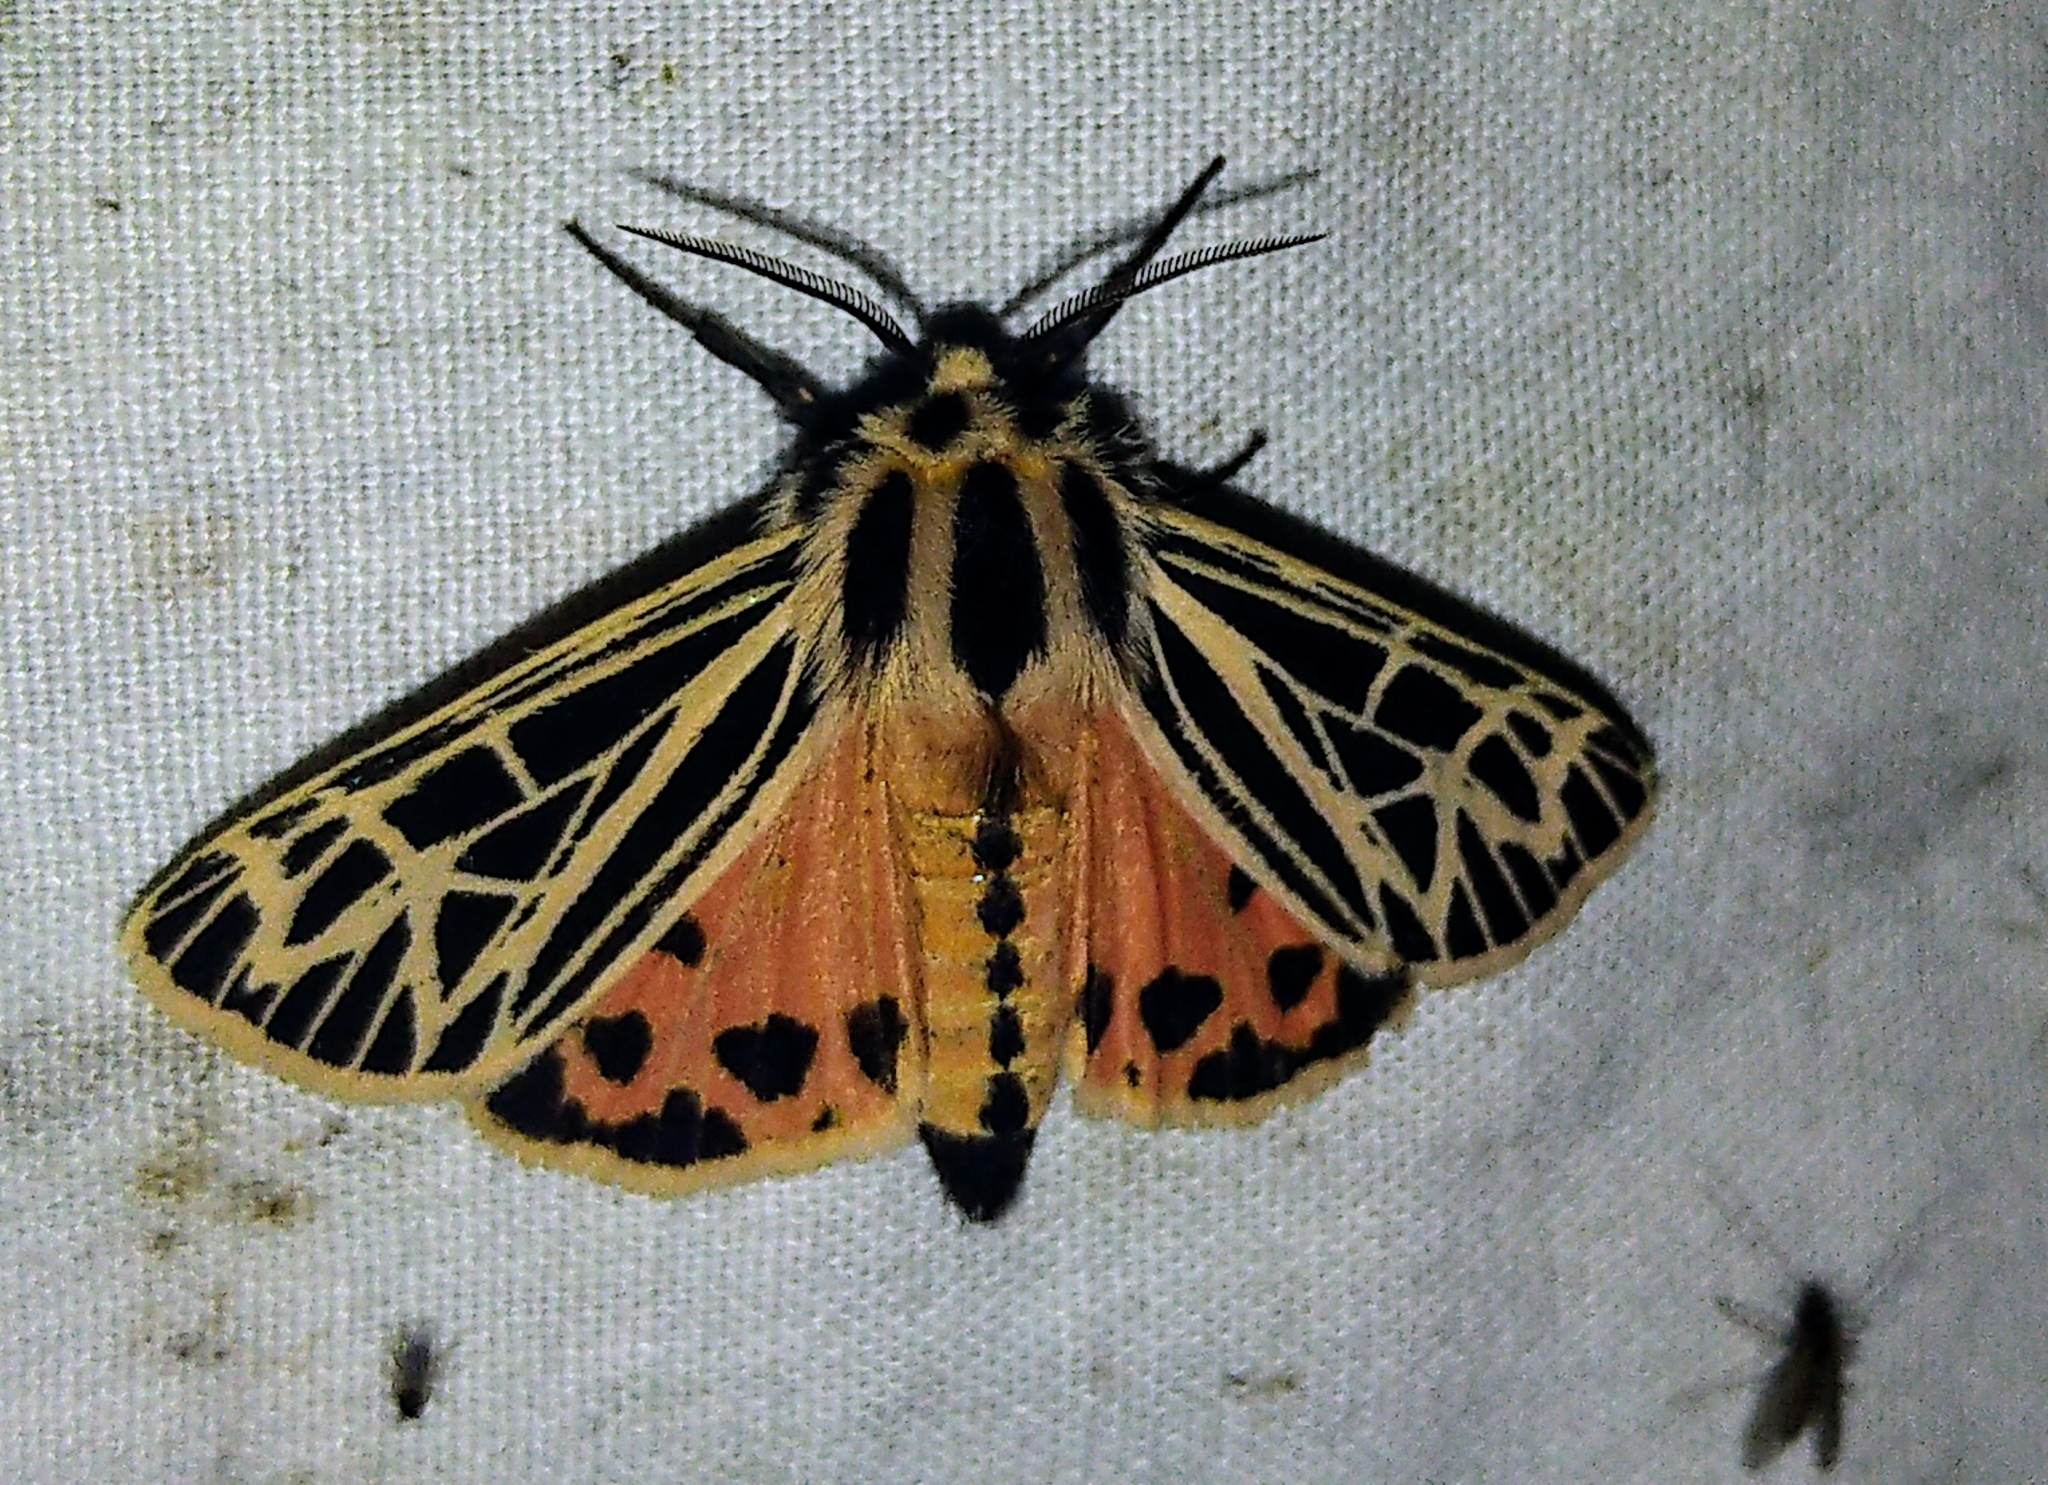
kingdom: Animalia
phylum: Arthropoda
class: Insecta
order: Lepidoptera
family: Erebidae
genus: Grammia
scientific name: Grammia parthenice
